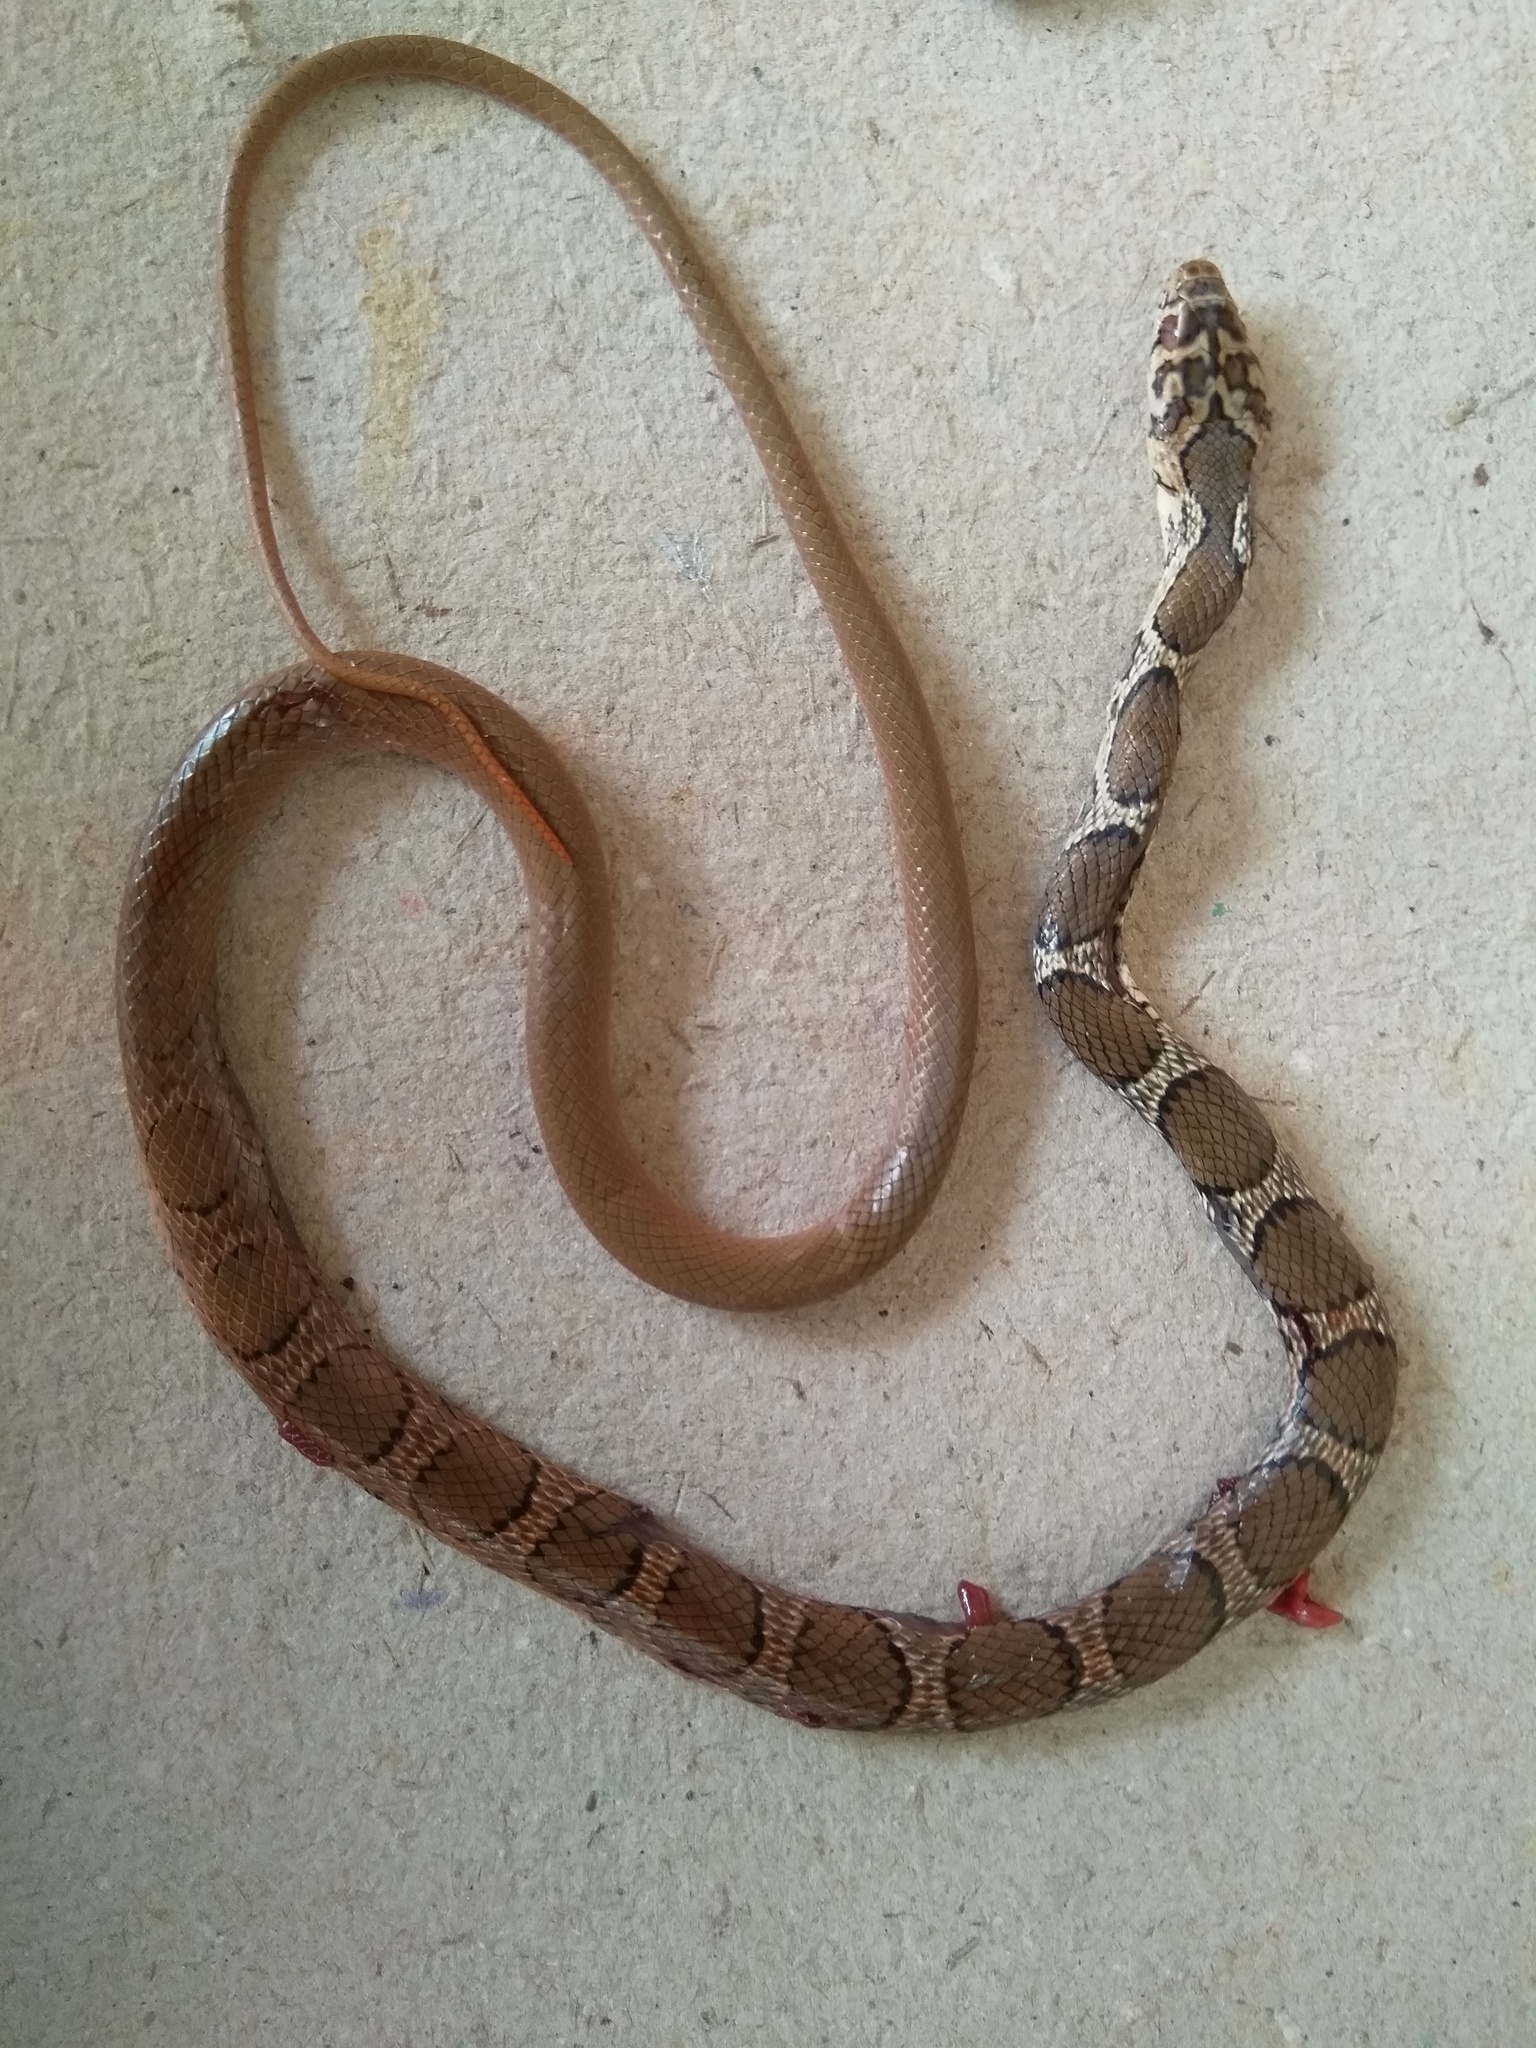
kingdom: Animalia
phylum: Chordata
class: Squamata
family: Colubridae
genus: Platyceps
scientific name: Platyceps bholanathi
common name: Nagarjunasagar racer
